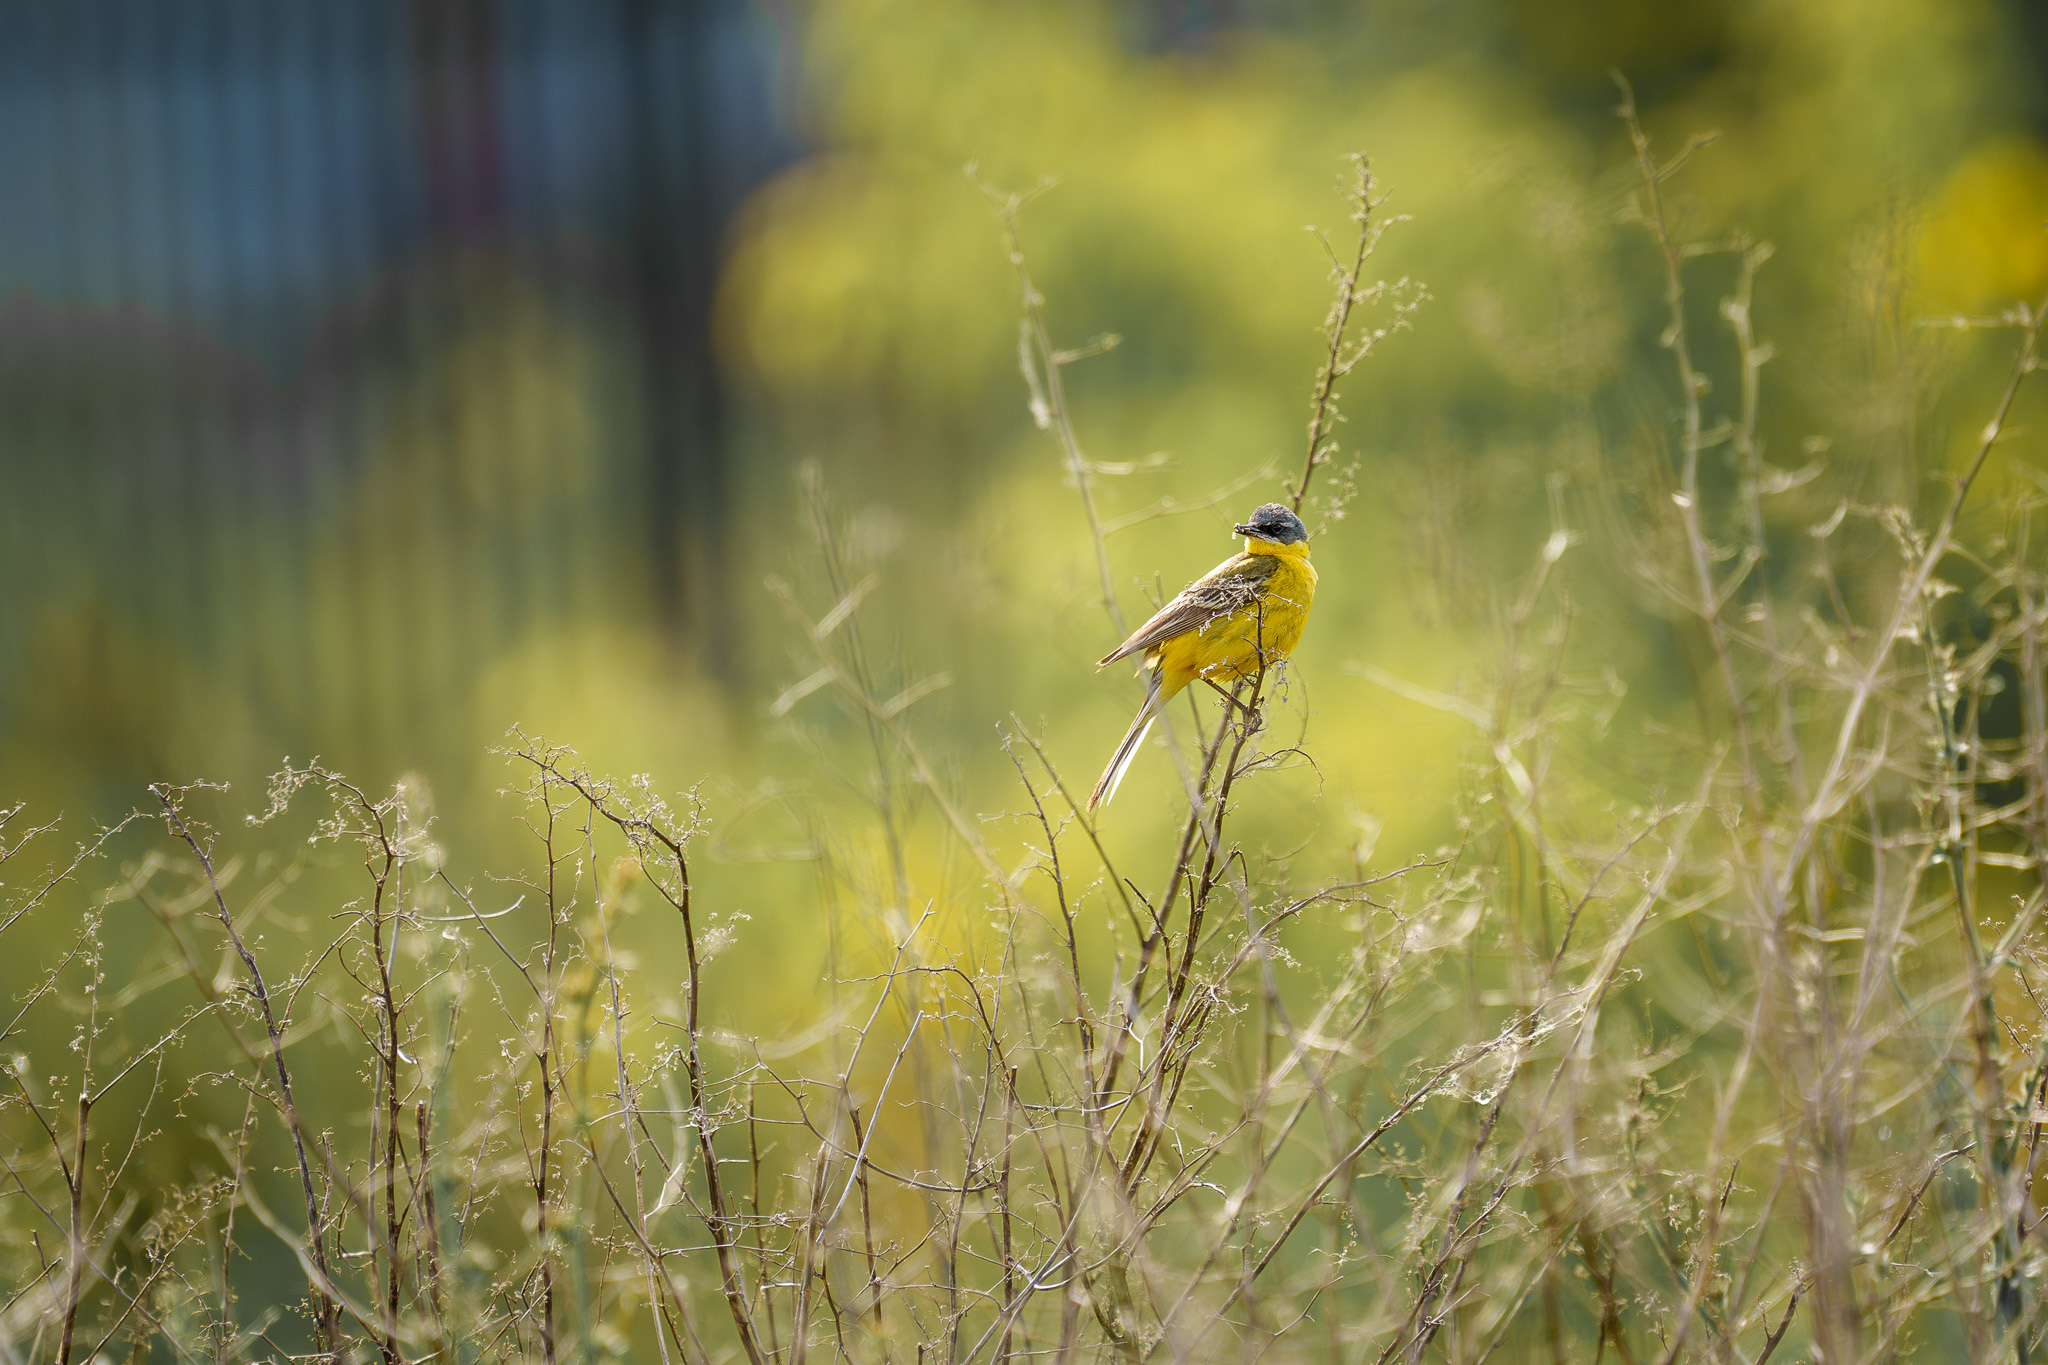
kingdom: Animalia
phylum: Chordata
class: Aves
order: Passeriformes
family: Motacillidae
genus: Motacilla
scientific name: Motacilla flava
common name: Western yellow wagtail
